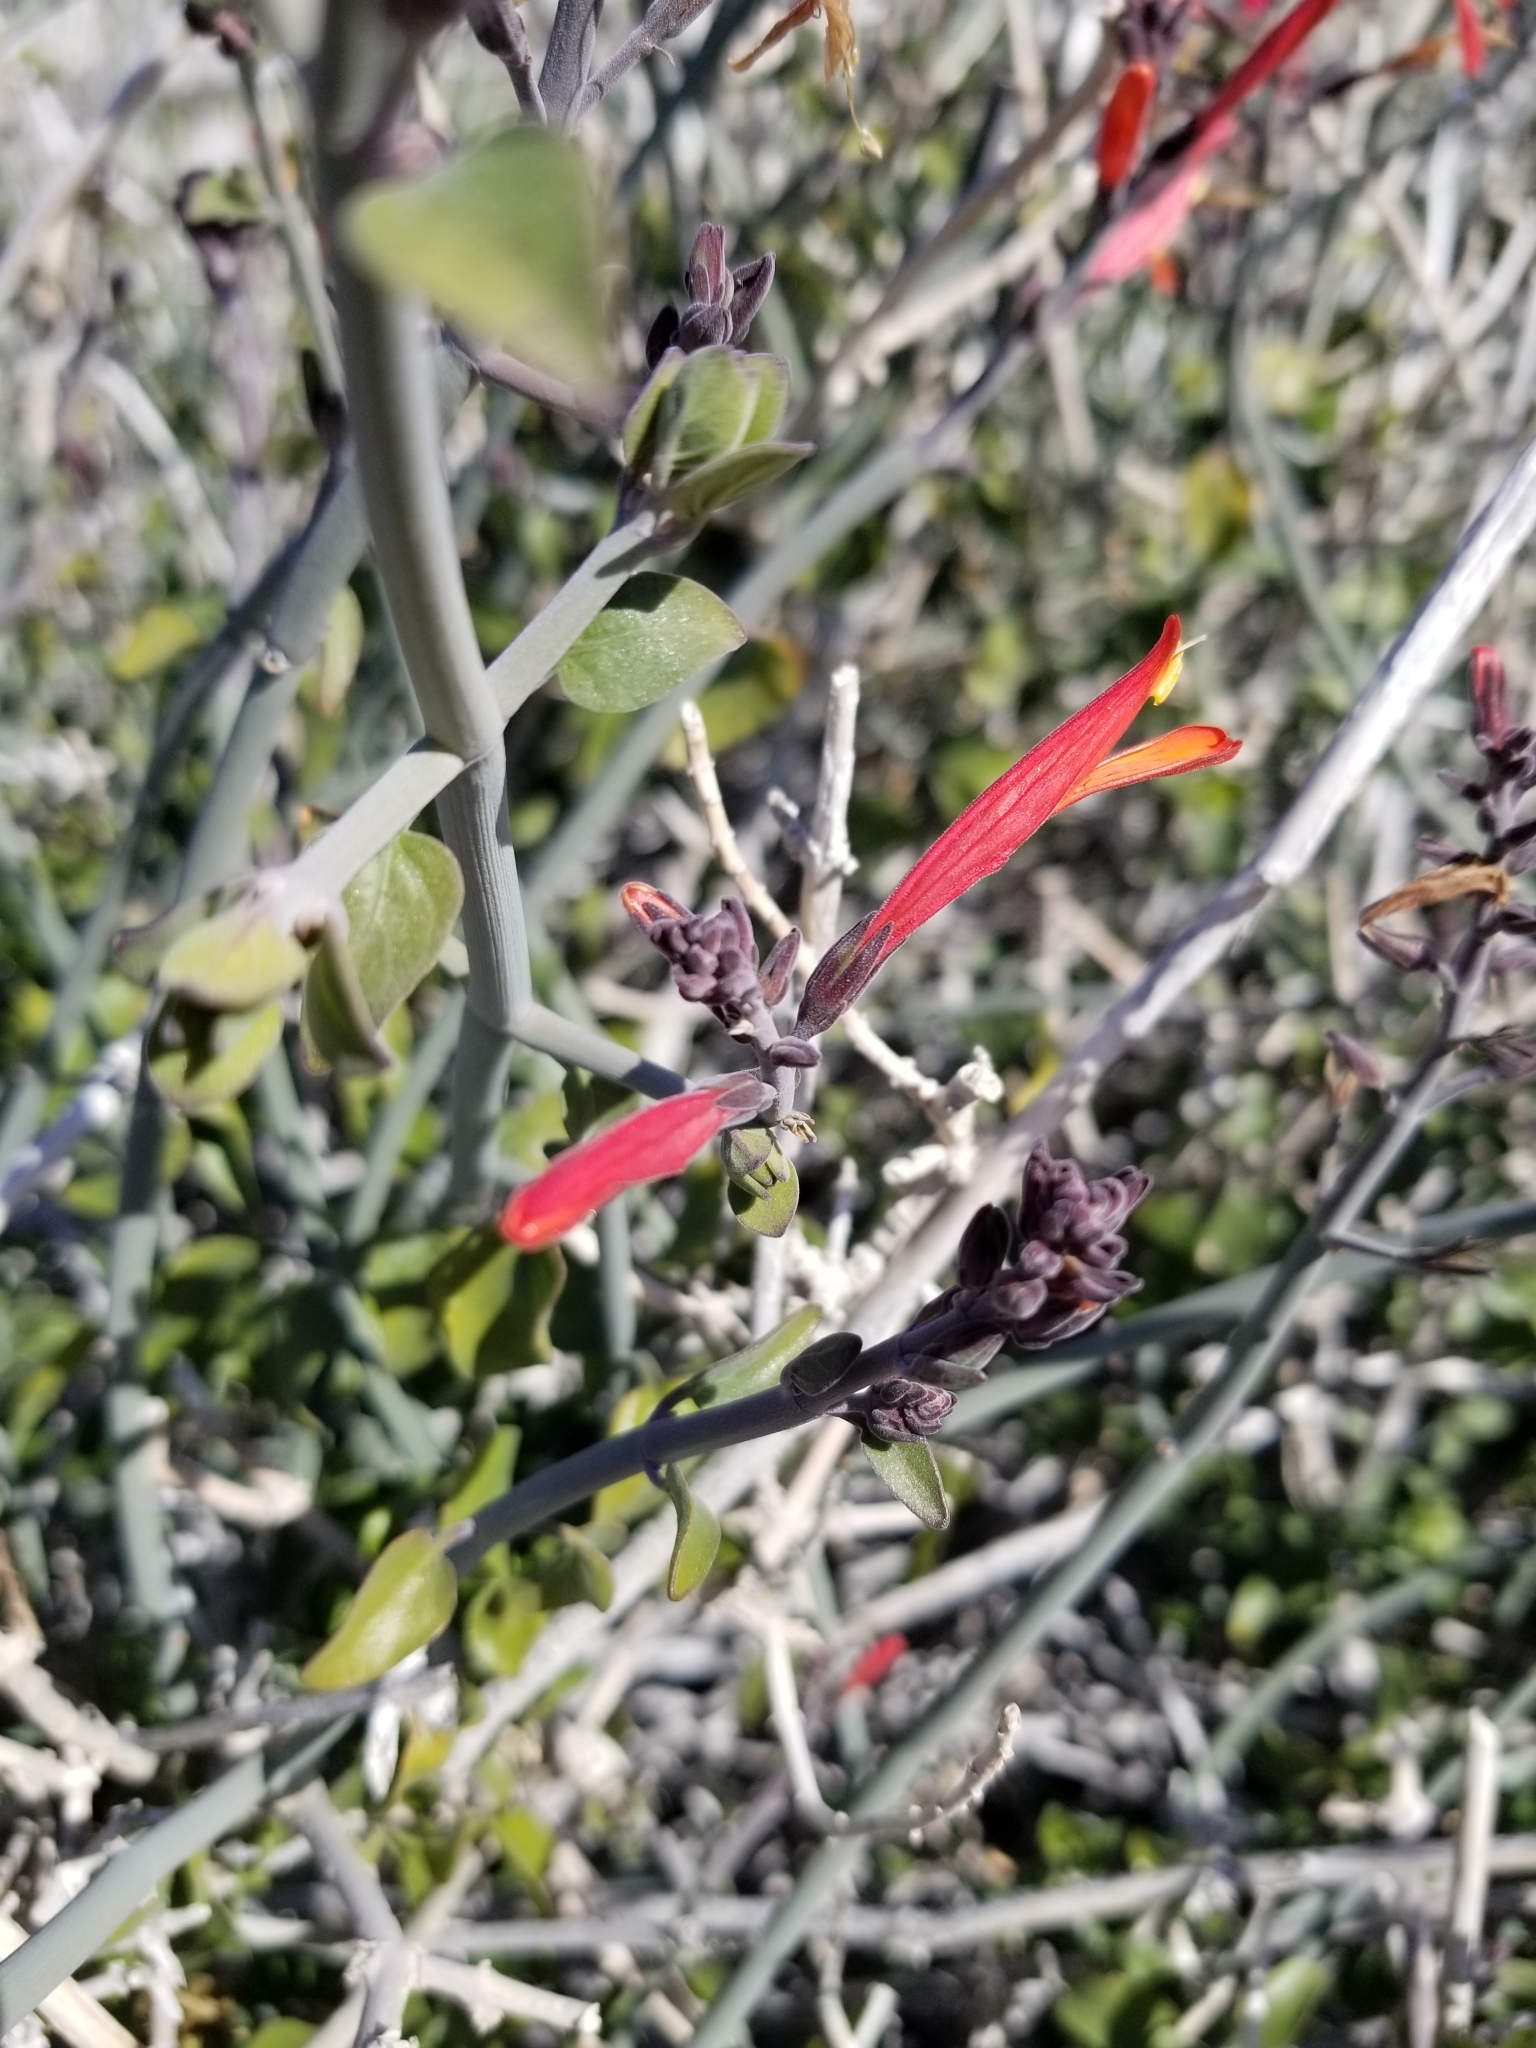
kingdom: Plantae
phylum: Tracheophyta
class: Magnoliopsida
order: Lamiales
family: Acanthaceae
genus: Justicia
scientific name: Justicia californica
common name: Chuparosa-honeysuckle
